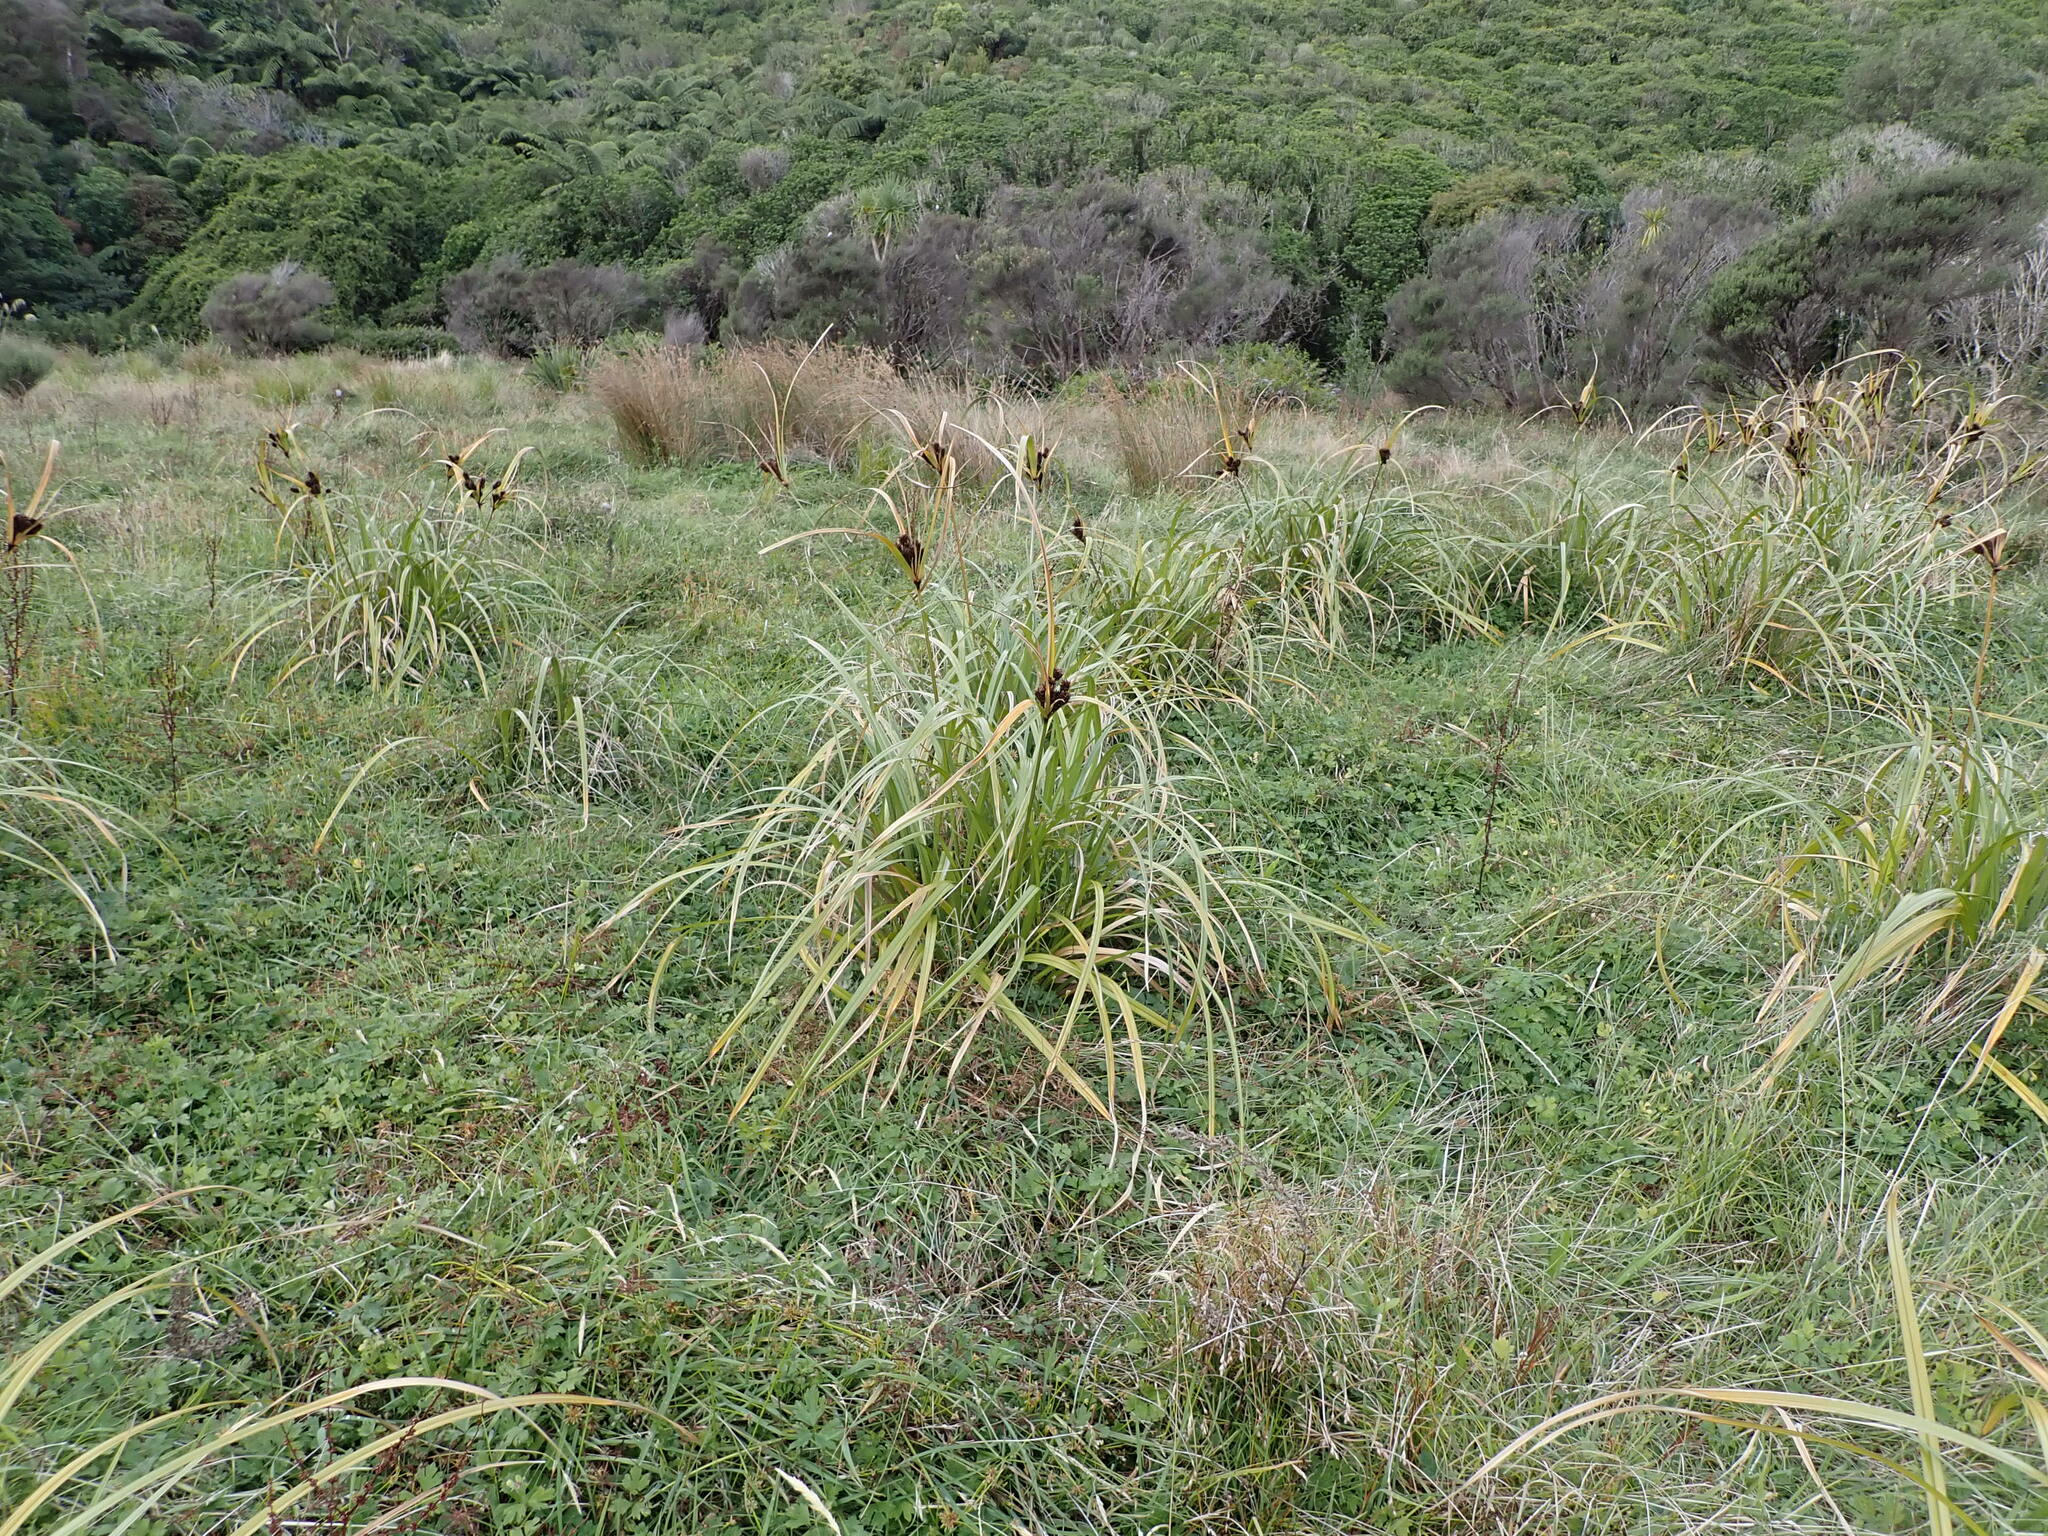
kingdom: Plantae
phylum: Tracheophyta
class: Liliopsida
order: Poales
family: Cyperaceae
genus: Cyperus
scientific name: Cyperus ustulatus
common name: Giant umbrella-sedge
